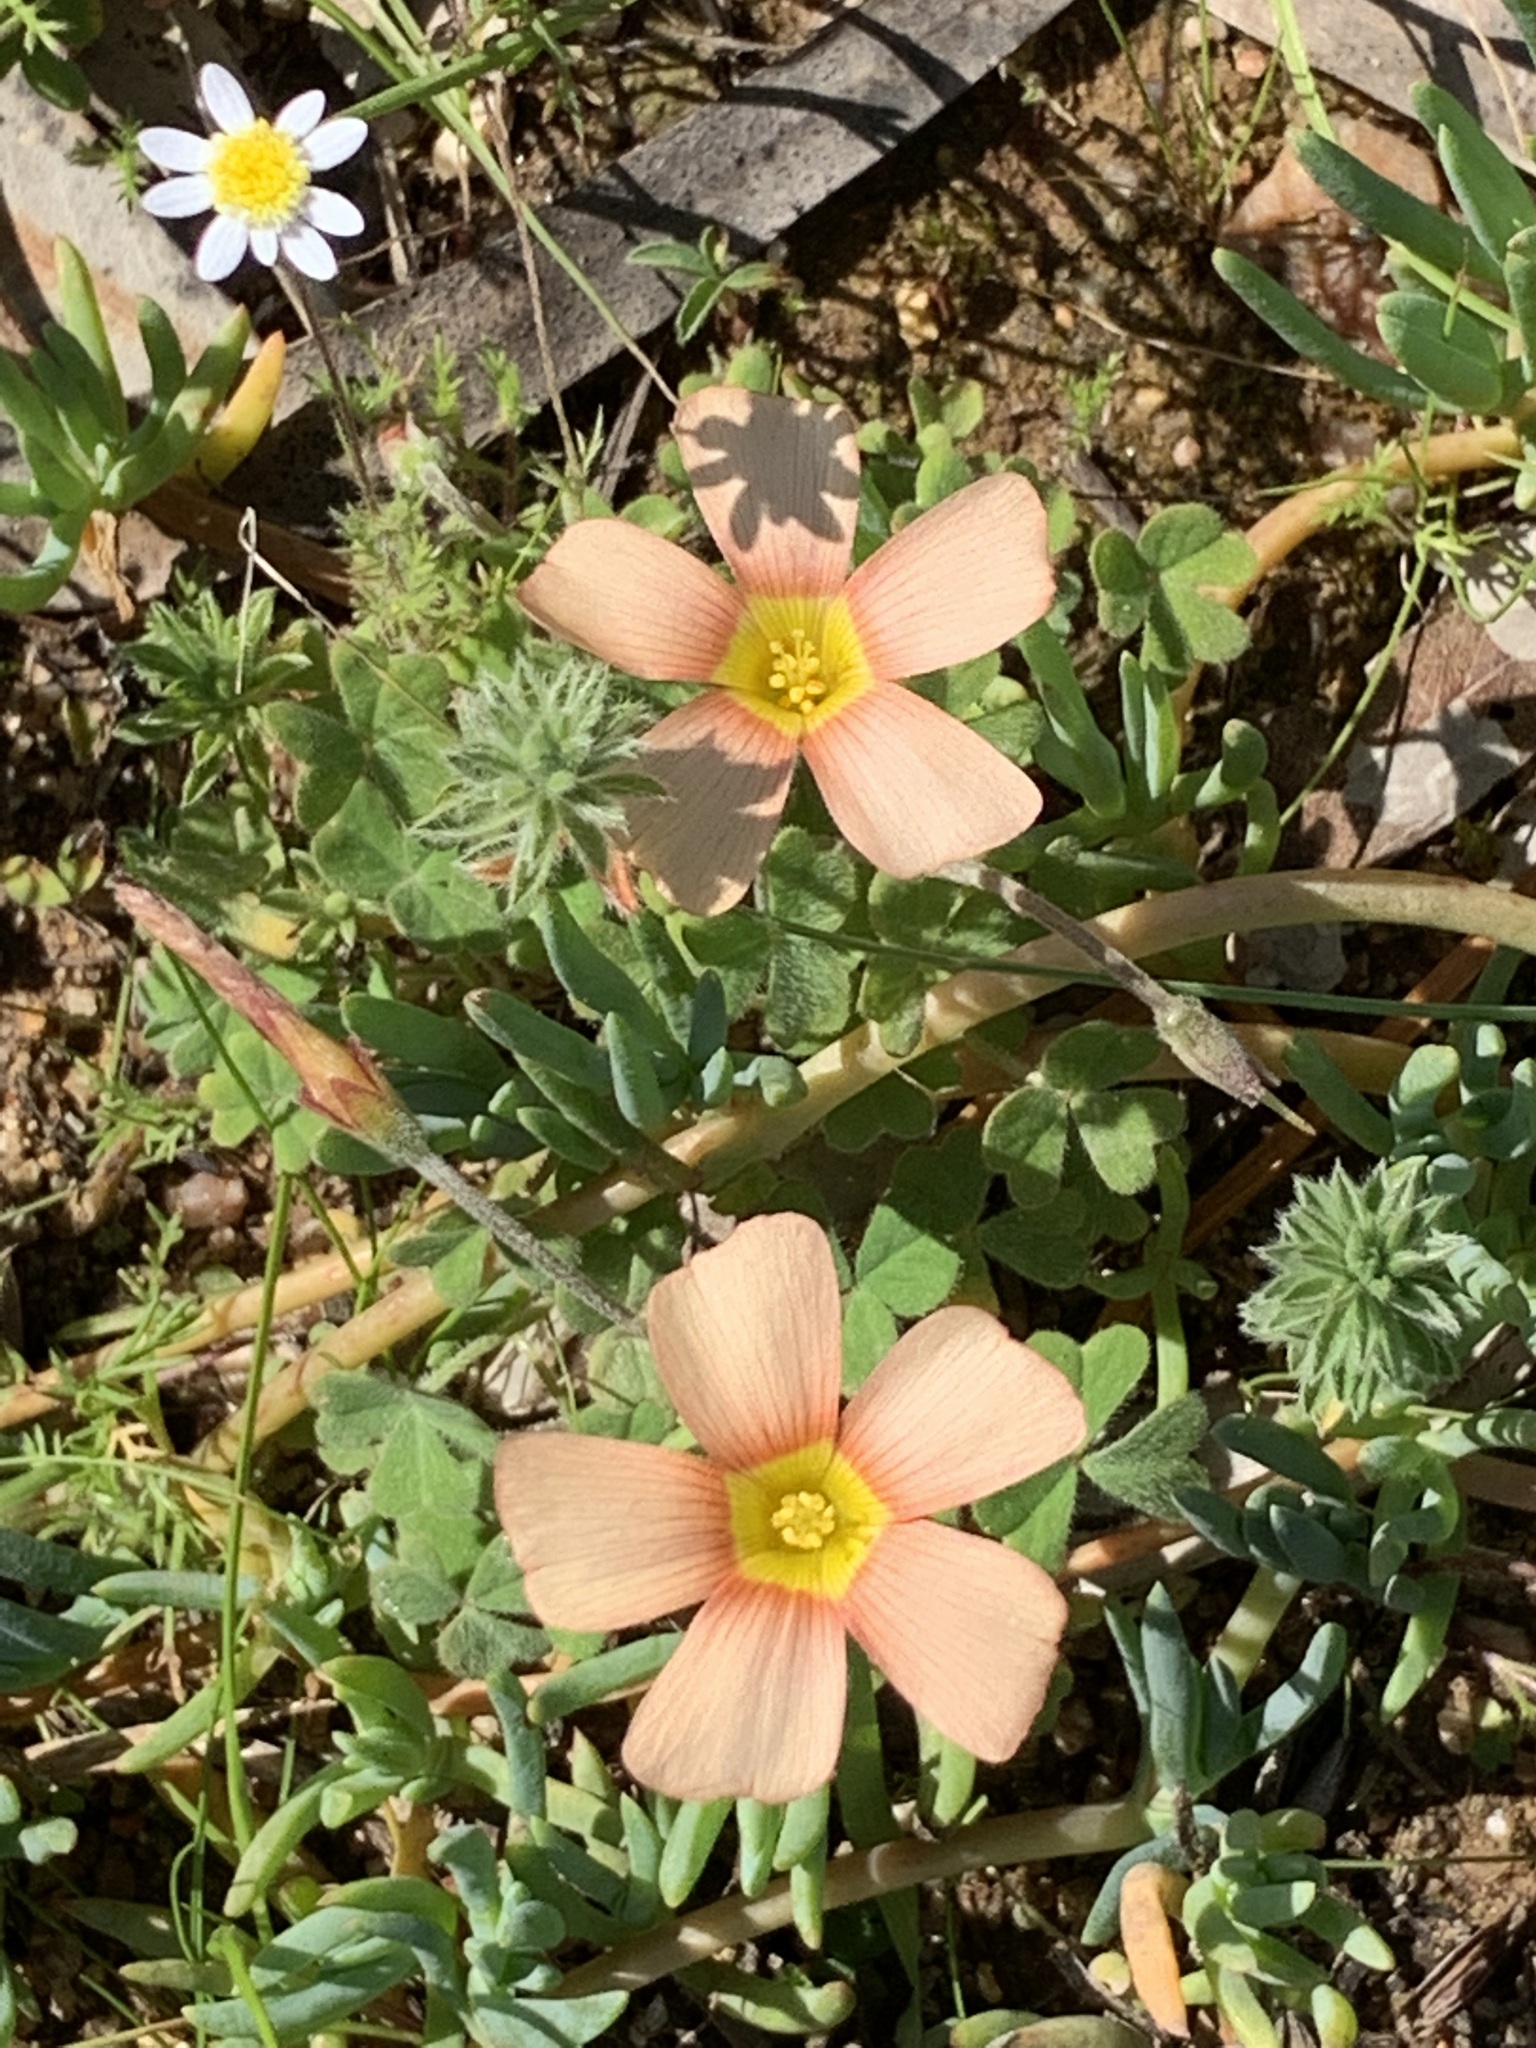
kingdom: Plantae
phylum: Tracheophyta
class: Magnoliopsida
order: Oxalidales
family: Oxalidaceae
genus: Oxalis
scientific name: Oxalis obtusa
